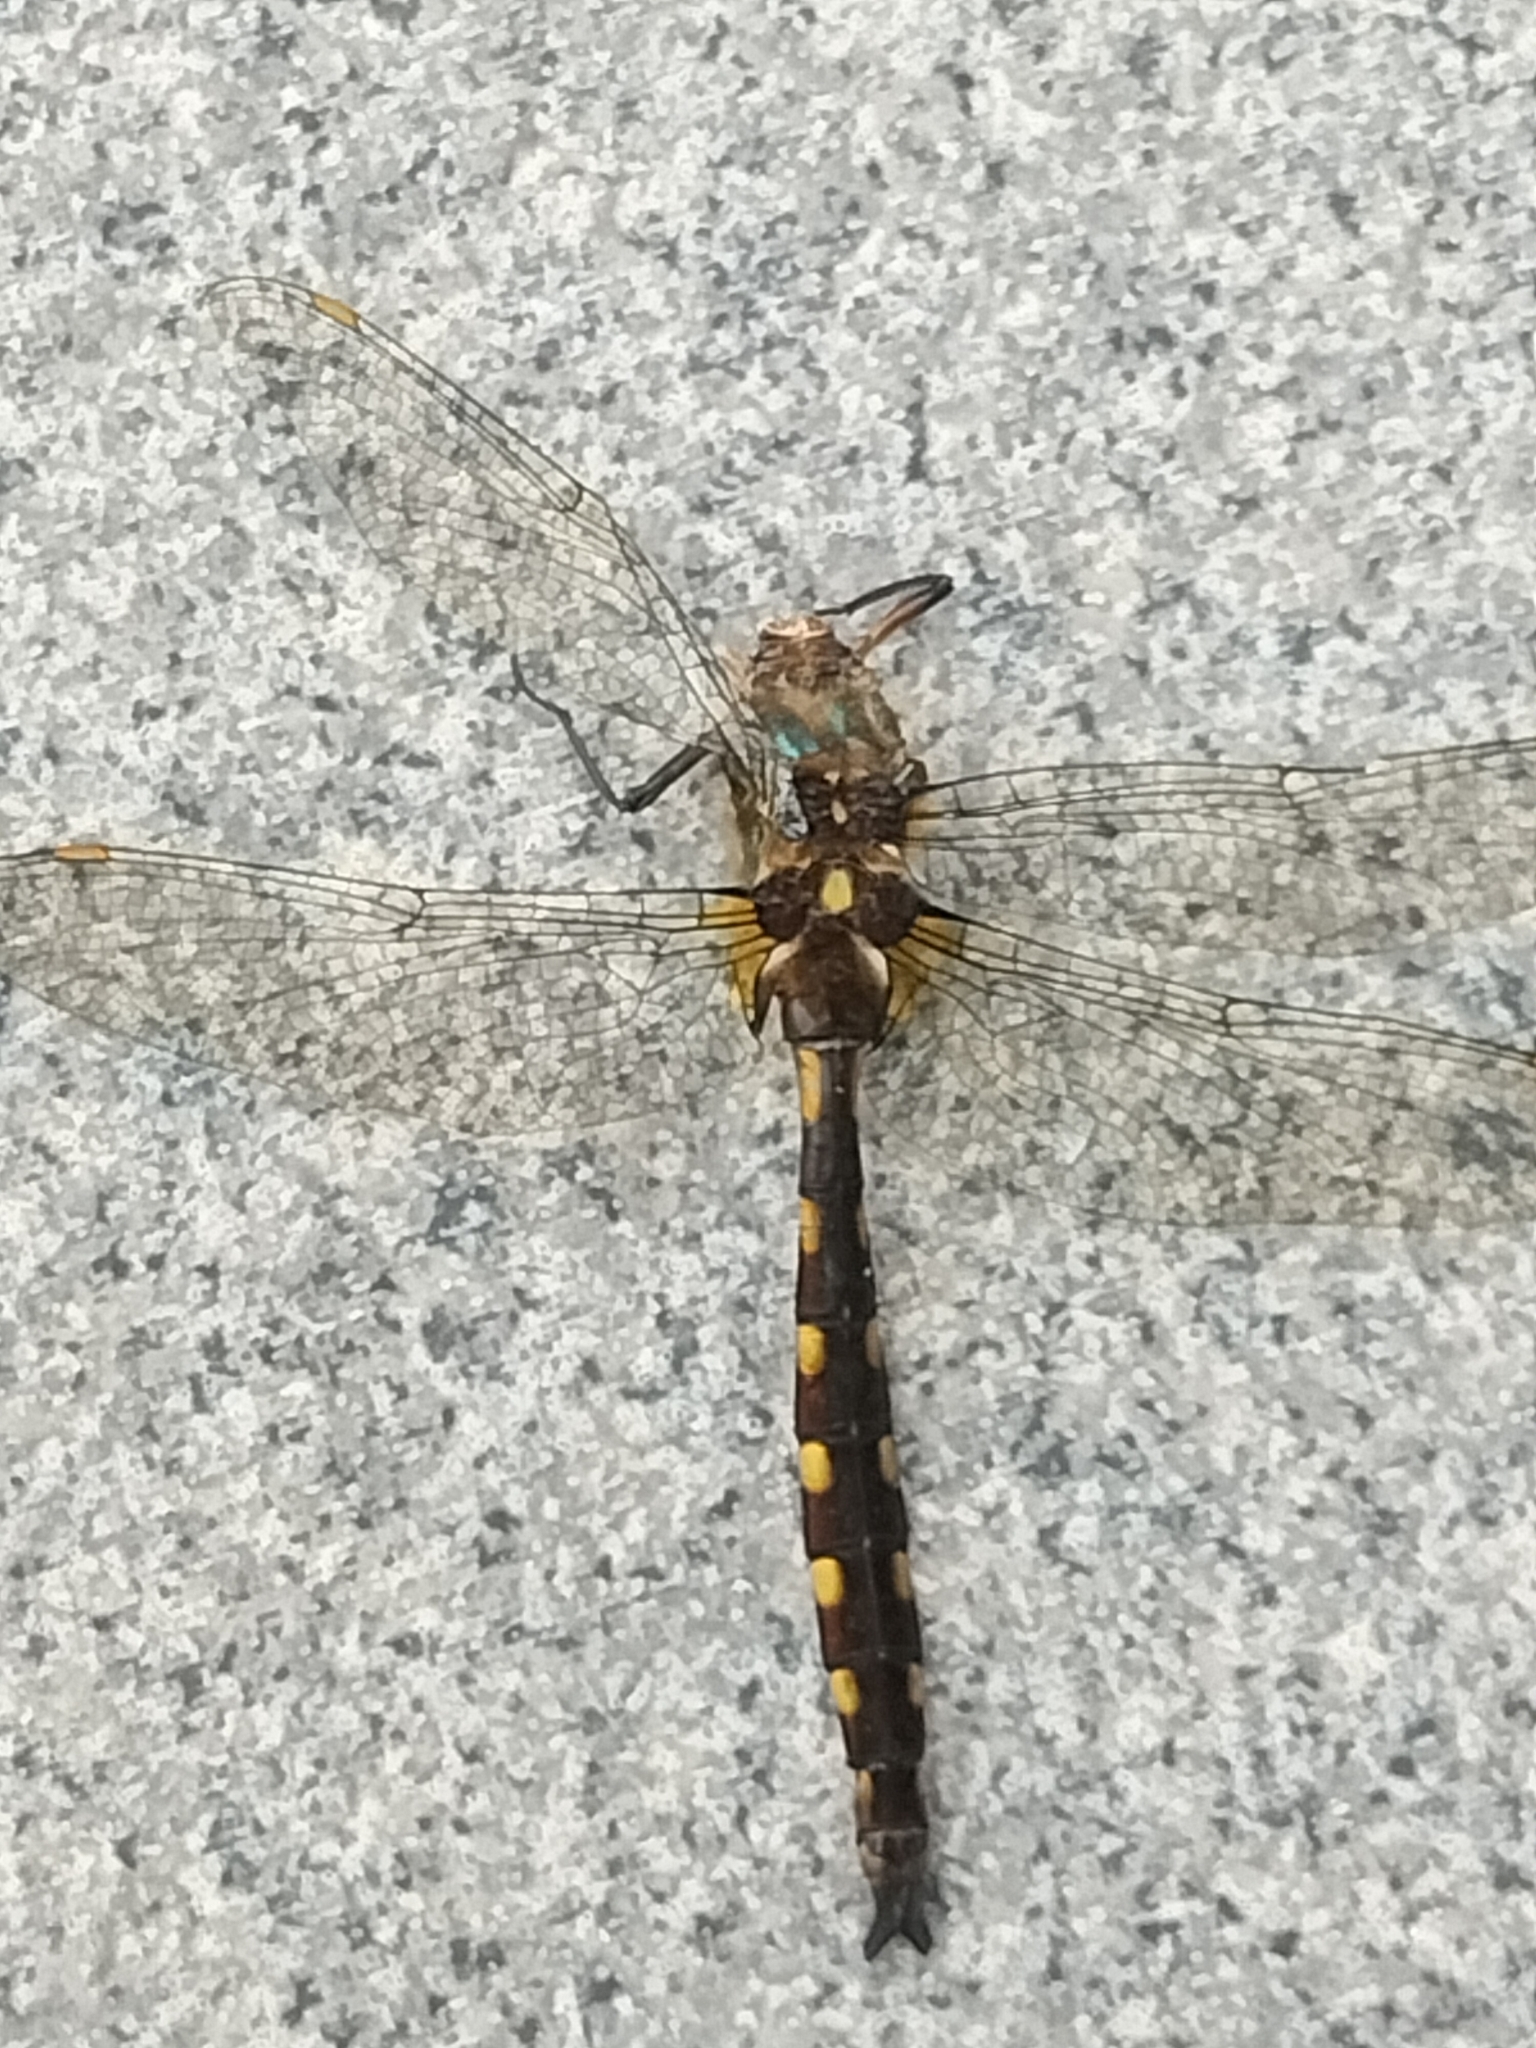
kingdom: Animalia
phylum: Arthropoda
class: Insecta
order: Odonata
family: Corduliidae
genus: Procordulia
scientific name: Procordulia grayi
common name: Yellow spotted dragonfly
